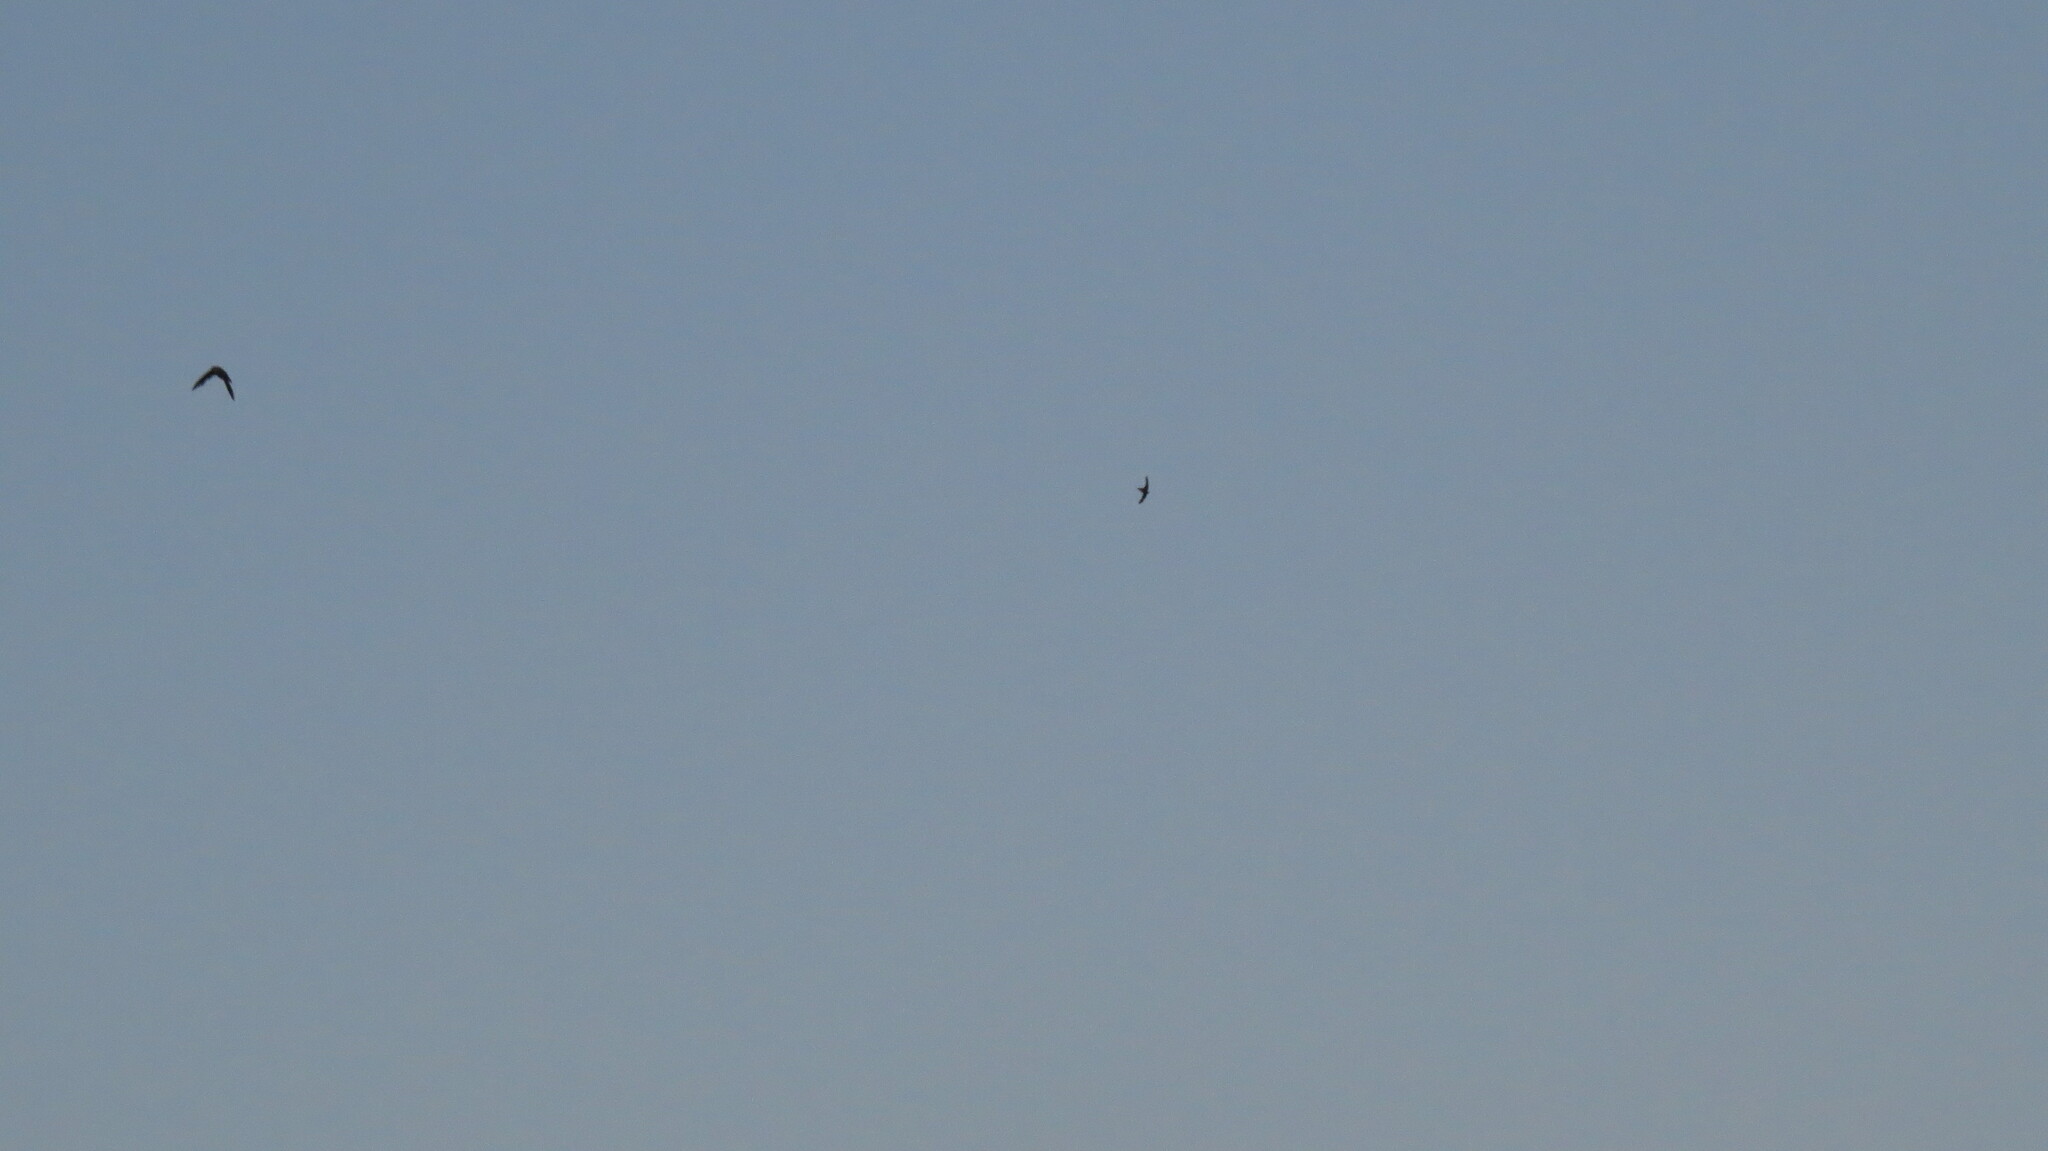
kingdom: Animalia
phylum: Chordata
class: Aves
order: Apodiformes
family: Apodidae
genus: Chaetura
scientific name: Chaetura pelagica
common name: Chimney swift
